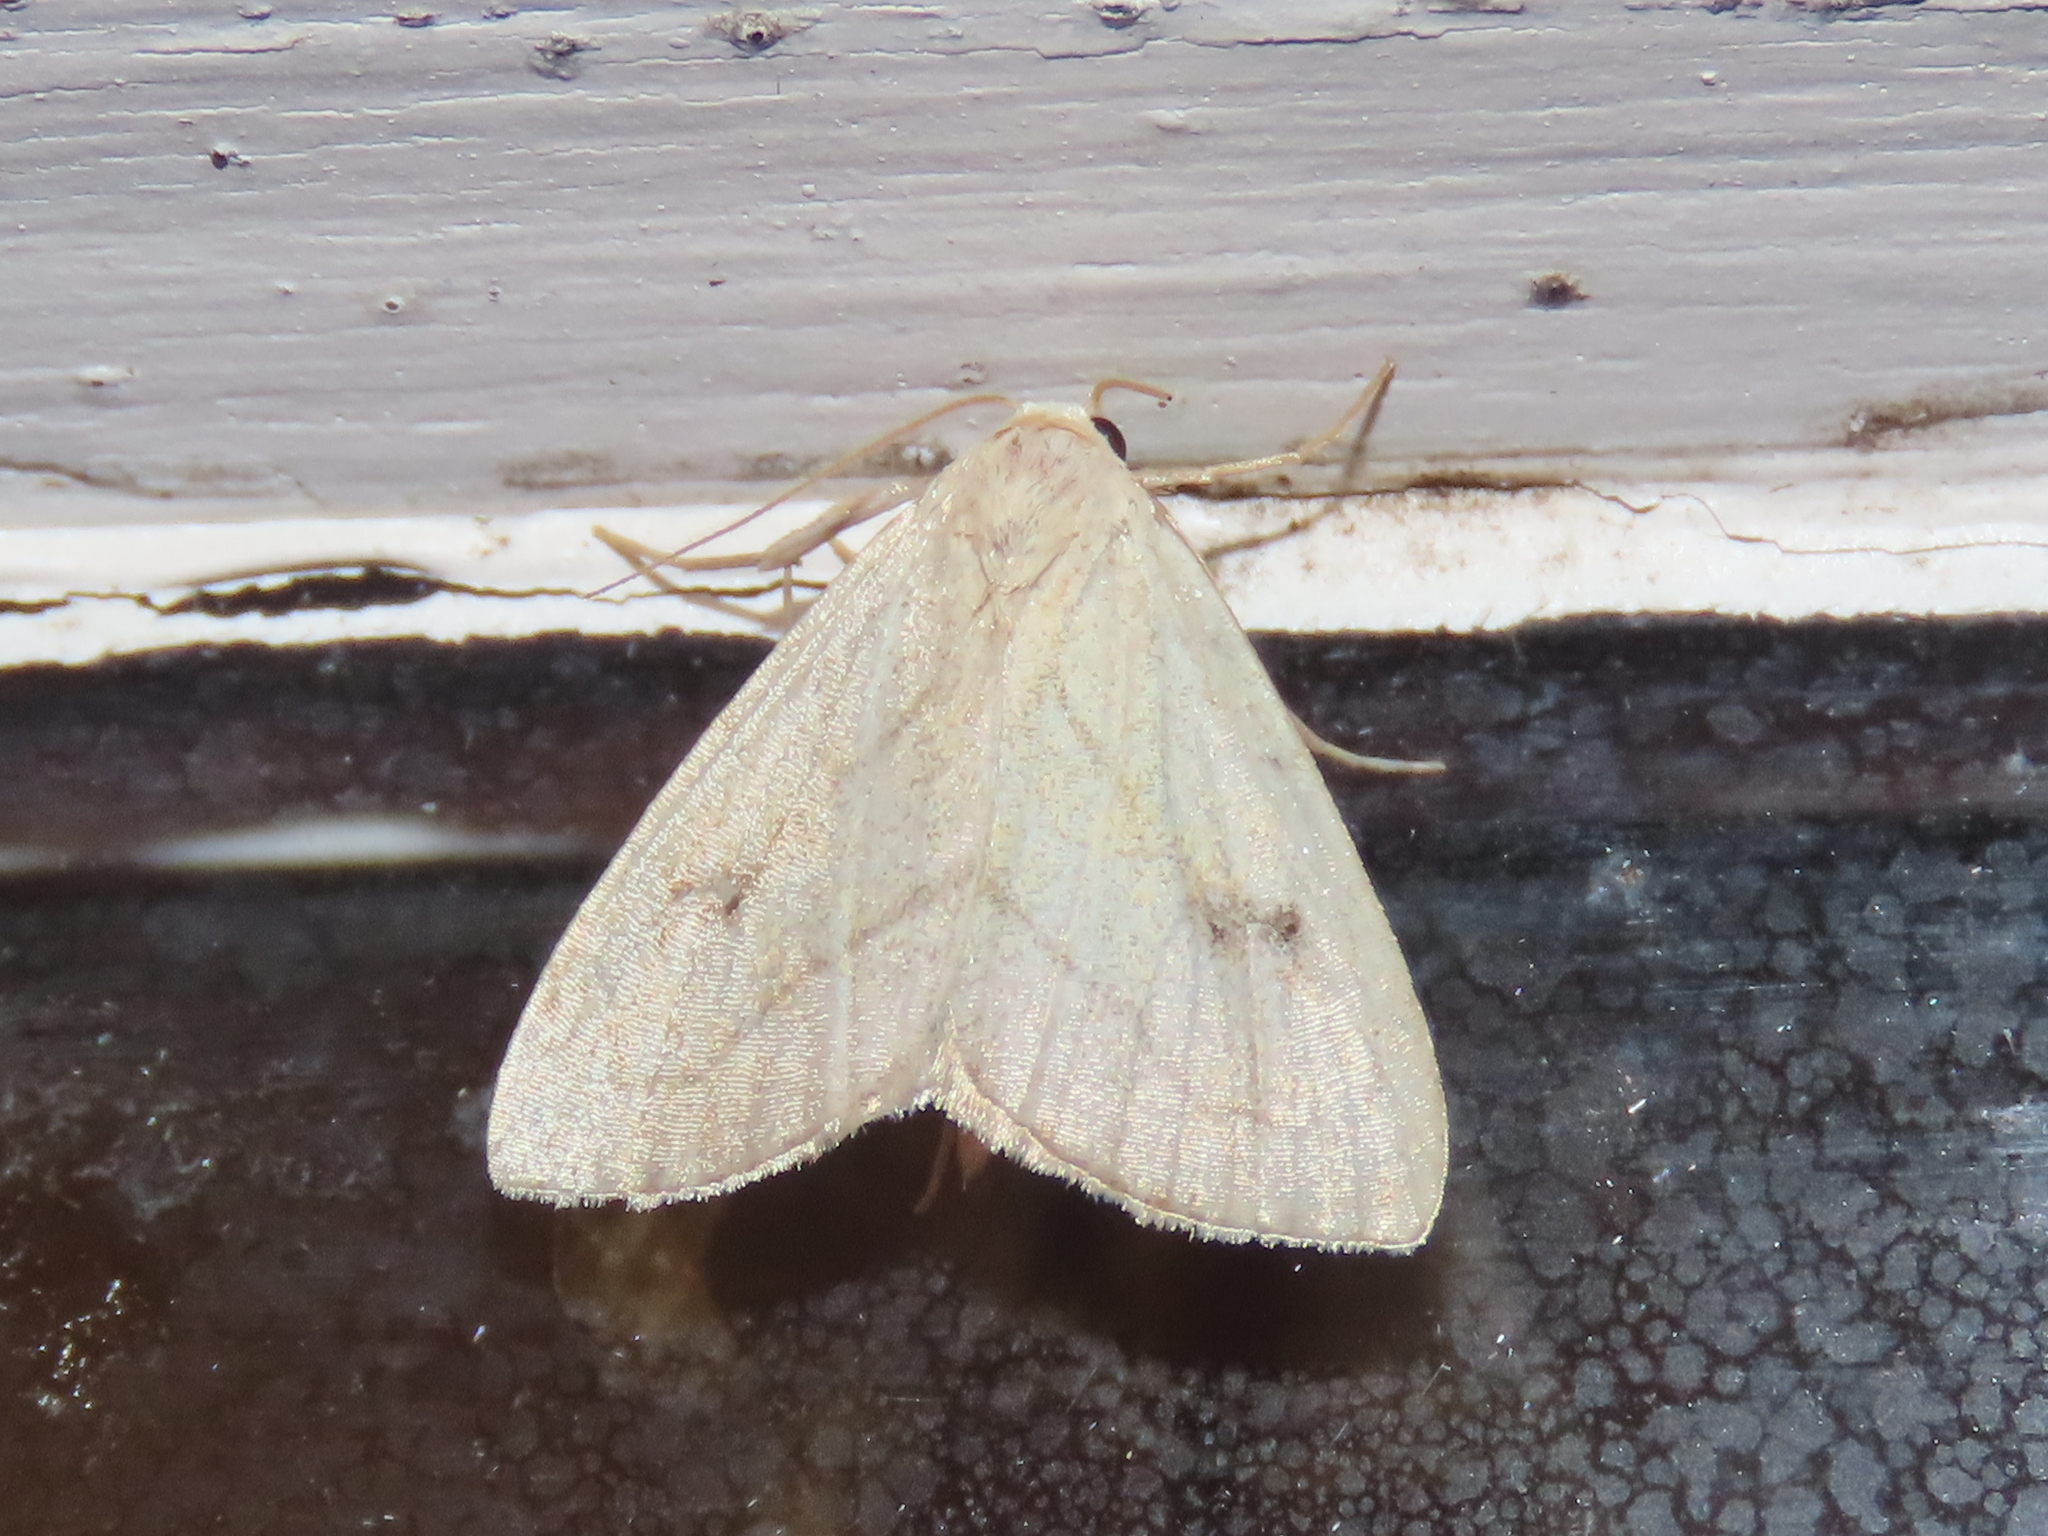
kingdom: Animalia
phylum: Arthropoda
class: Insecta
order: Lepidoptera
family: Erebidae
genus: Rivula
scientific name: Rivula propinqualis
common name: Spotted grass moth
